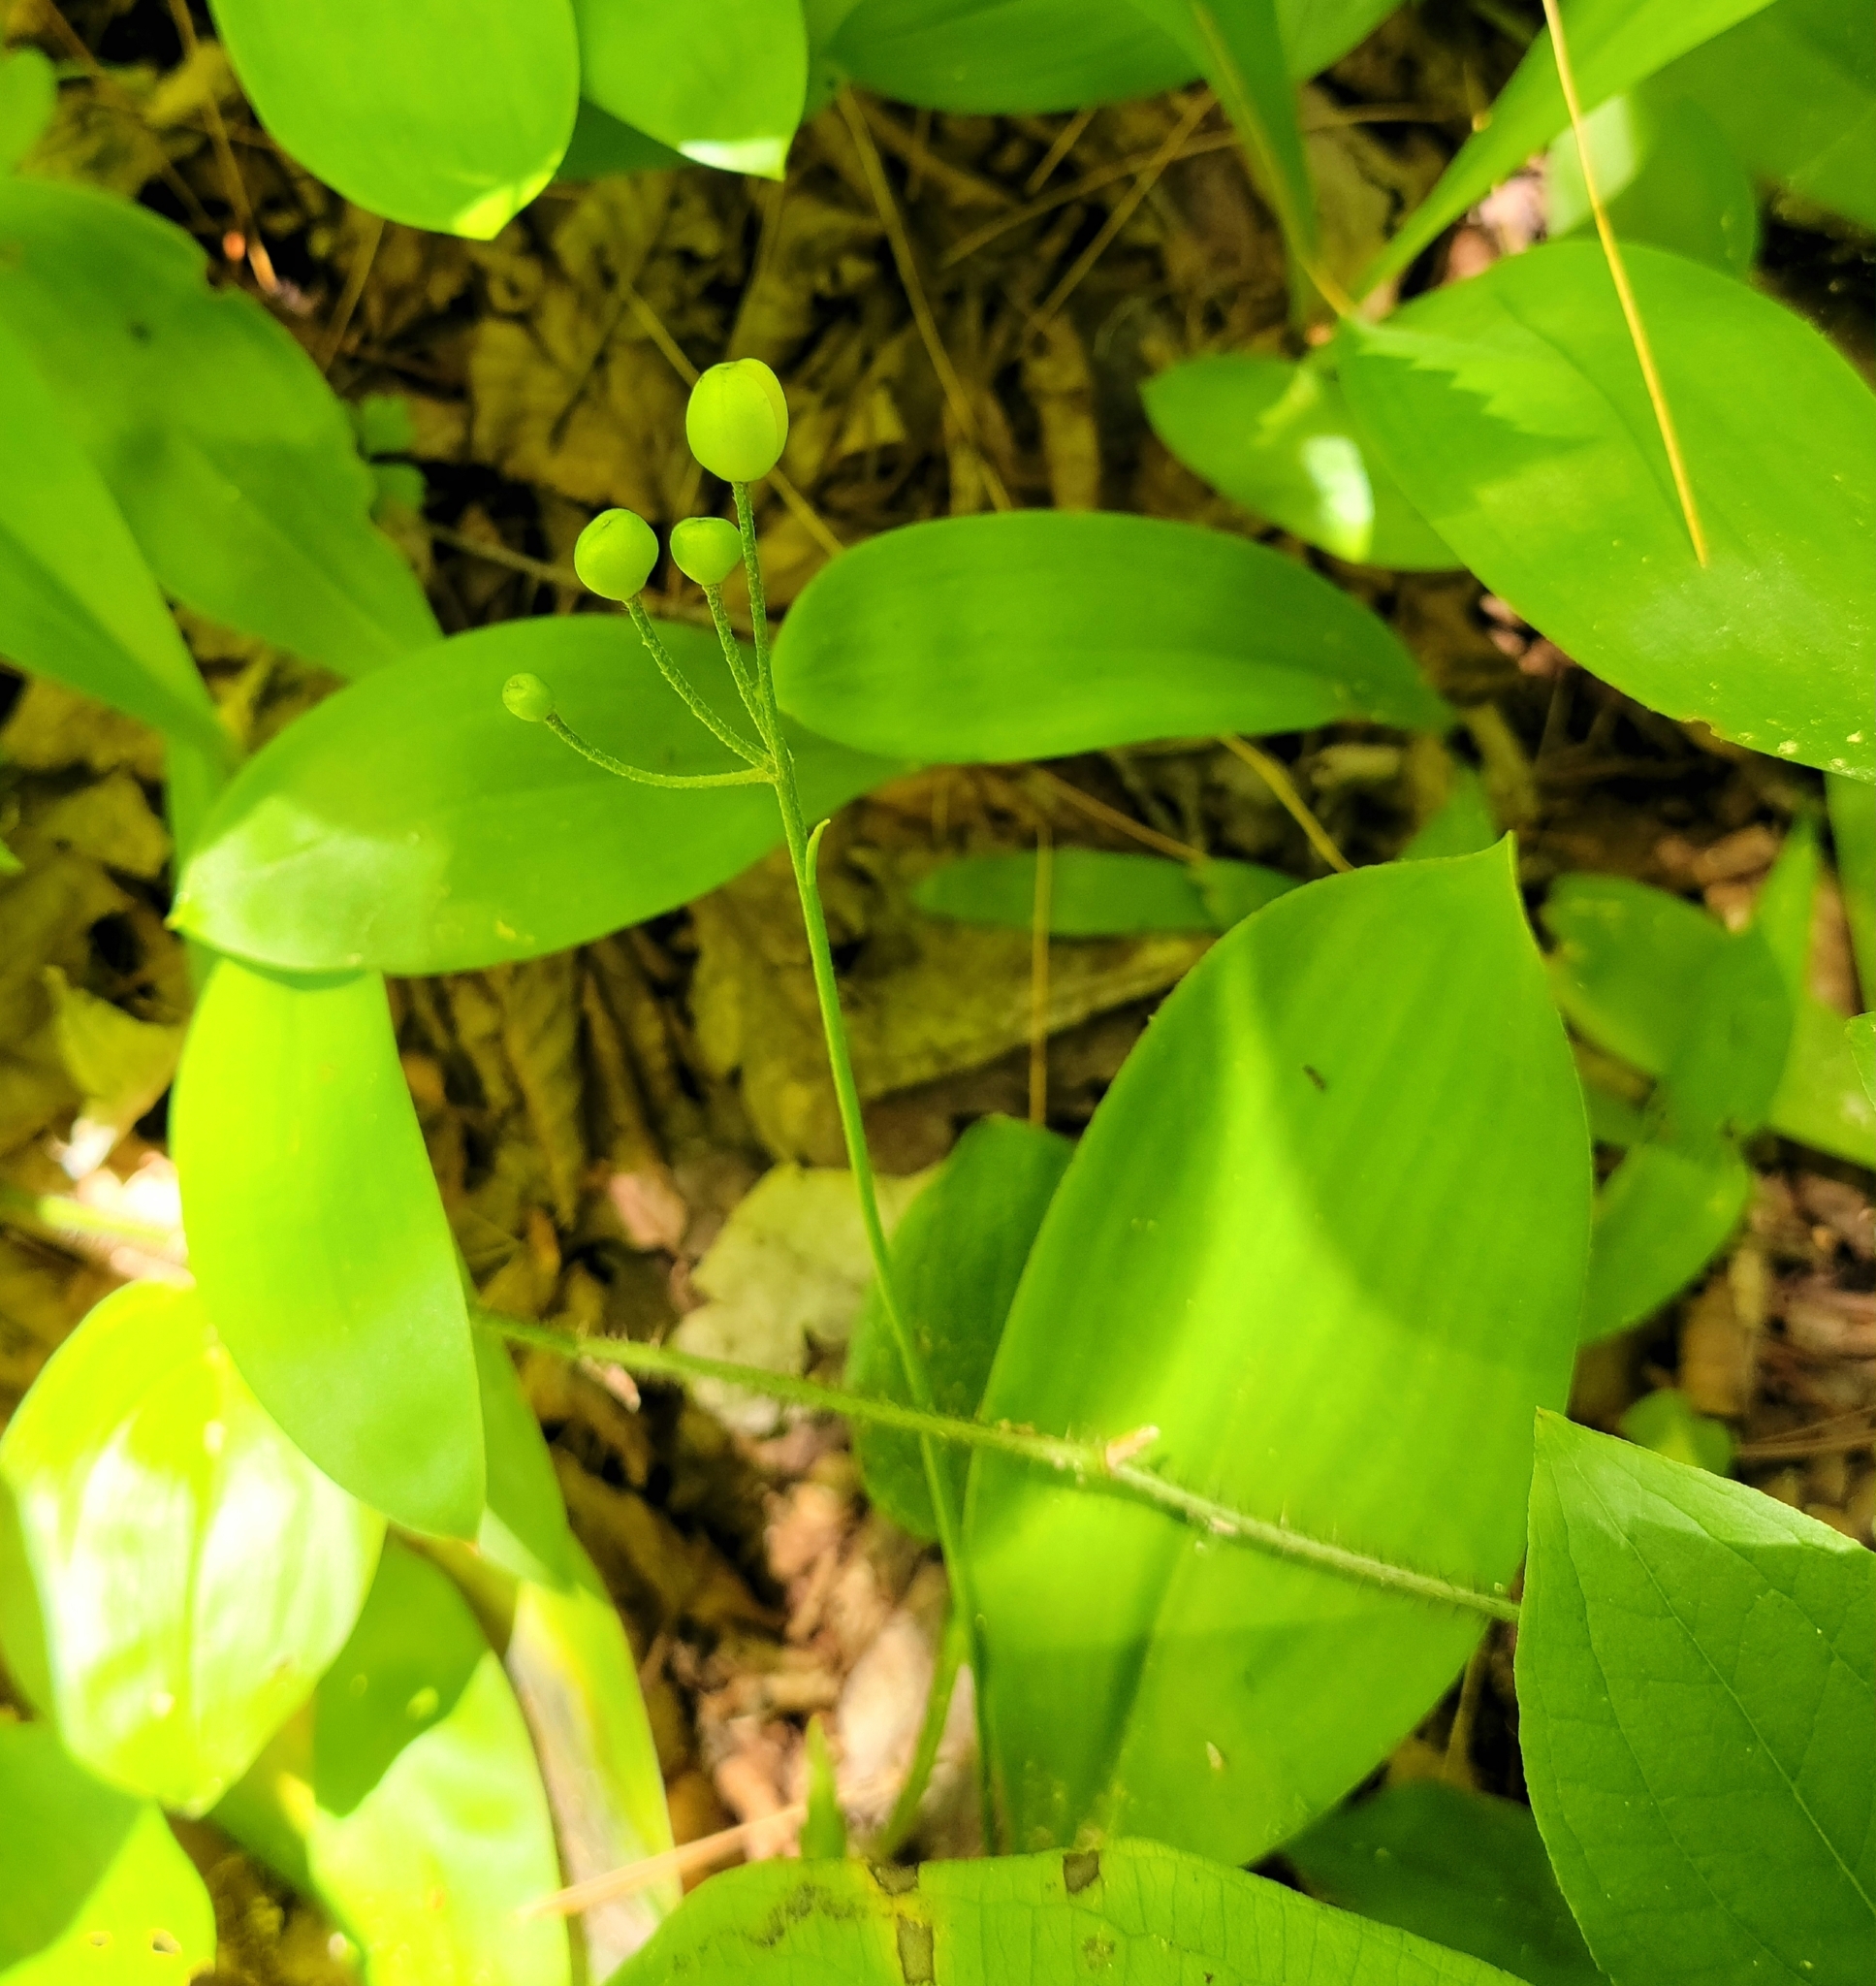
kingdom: Plantae
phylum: Tracheophyta
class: Liliopsida
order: Liliales
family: Liliaceae
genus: Clintonia
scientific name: Clintonia borealis
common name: Yellow clintonia
